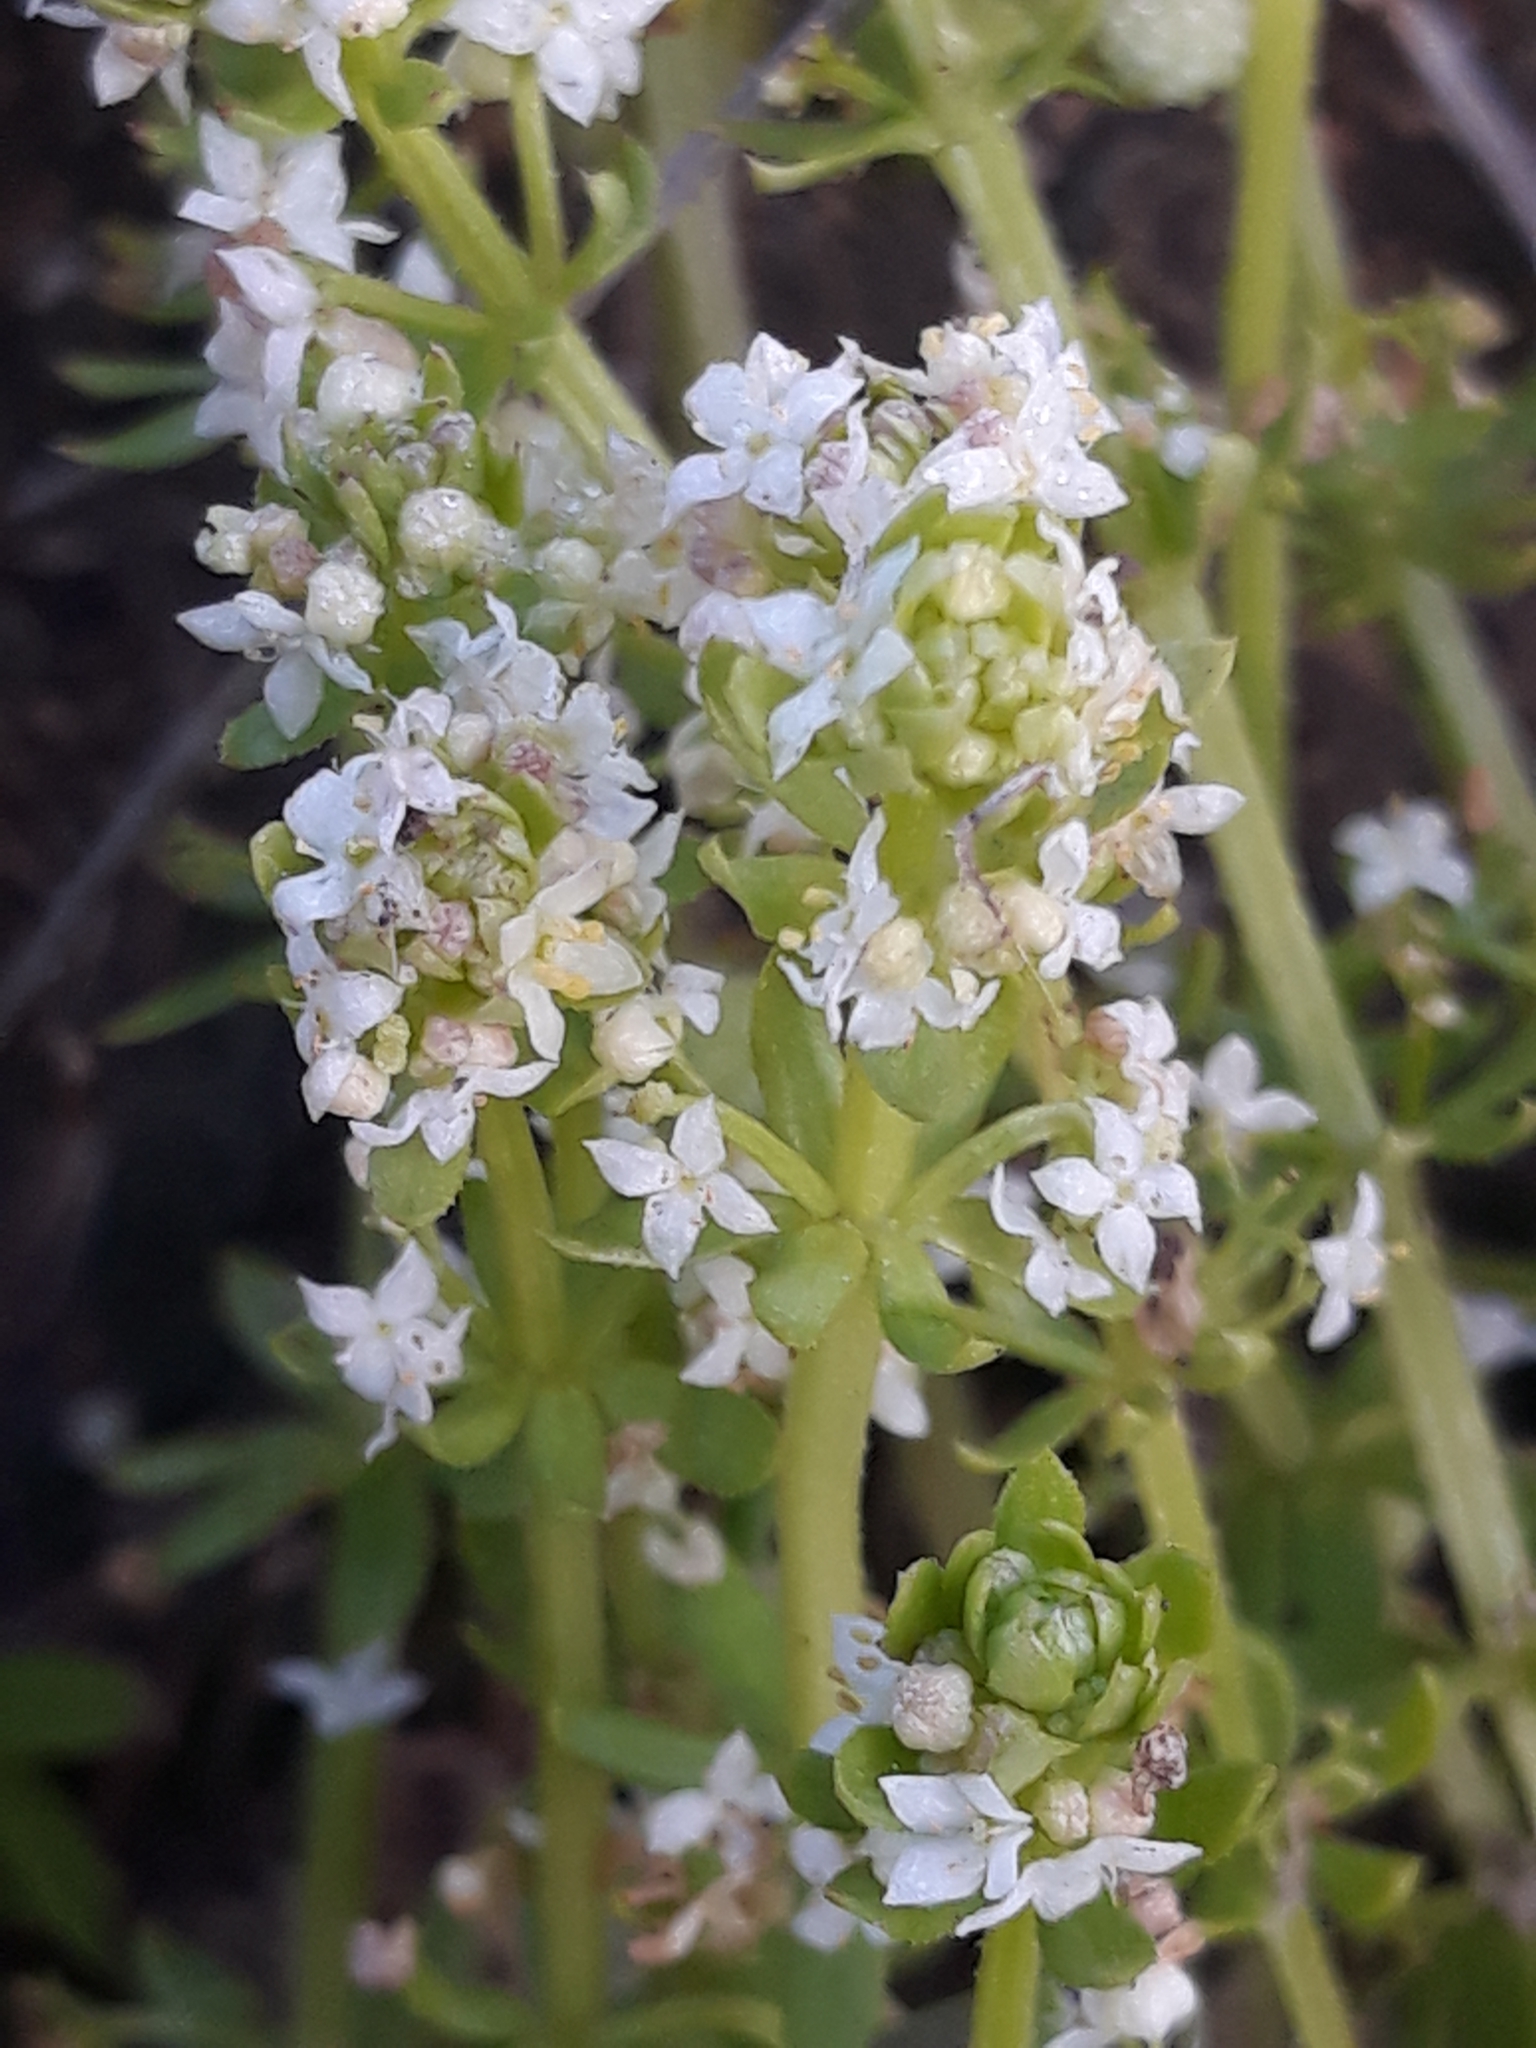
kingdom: Plantae
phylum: Tracheophyta
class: Magnoliopsida
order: Gentianales
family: Rubiaceae
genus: Galium
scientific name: Galium verrucosum
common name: Warty bedstraw
